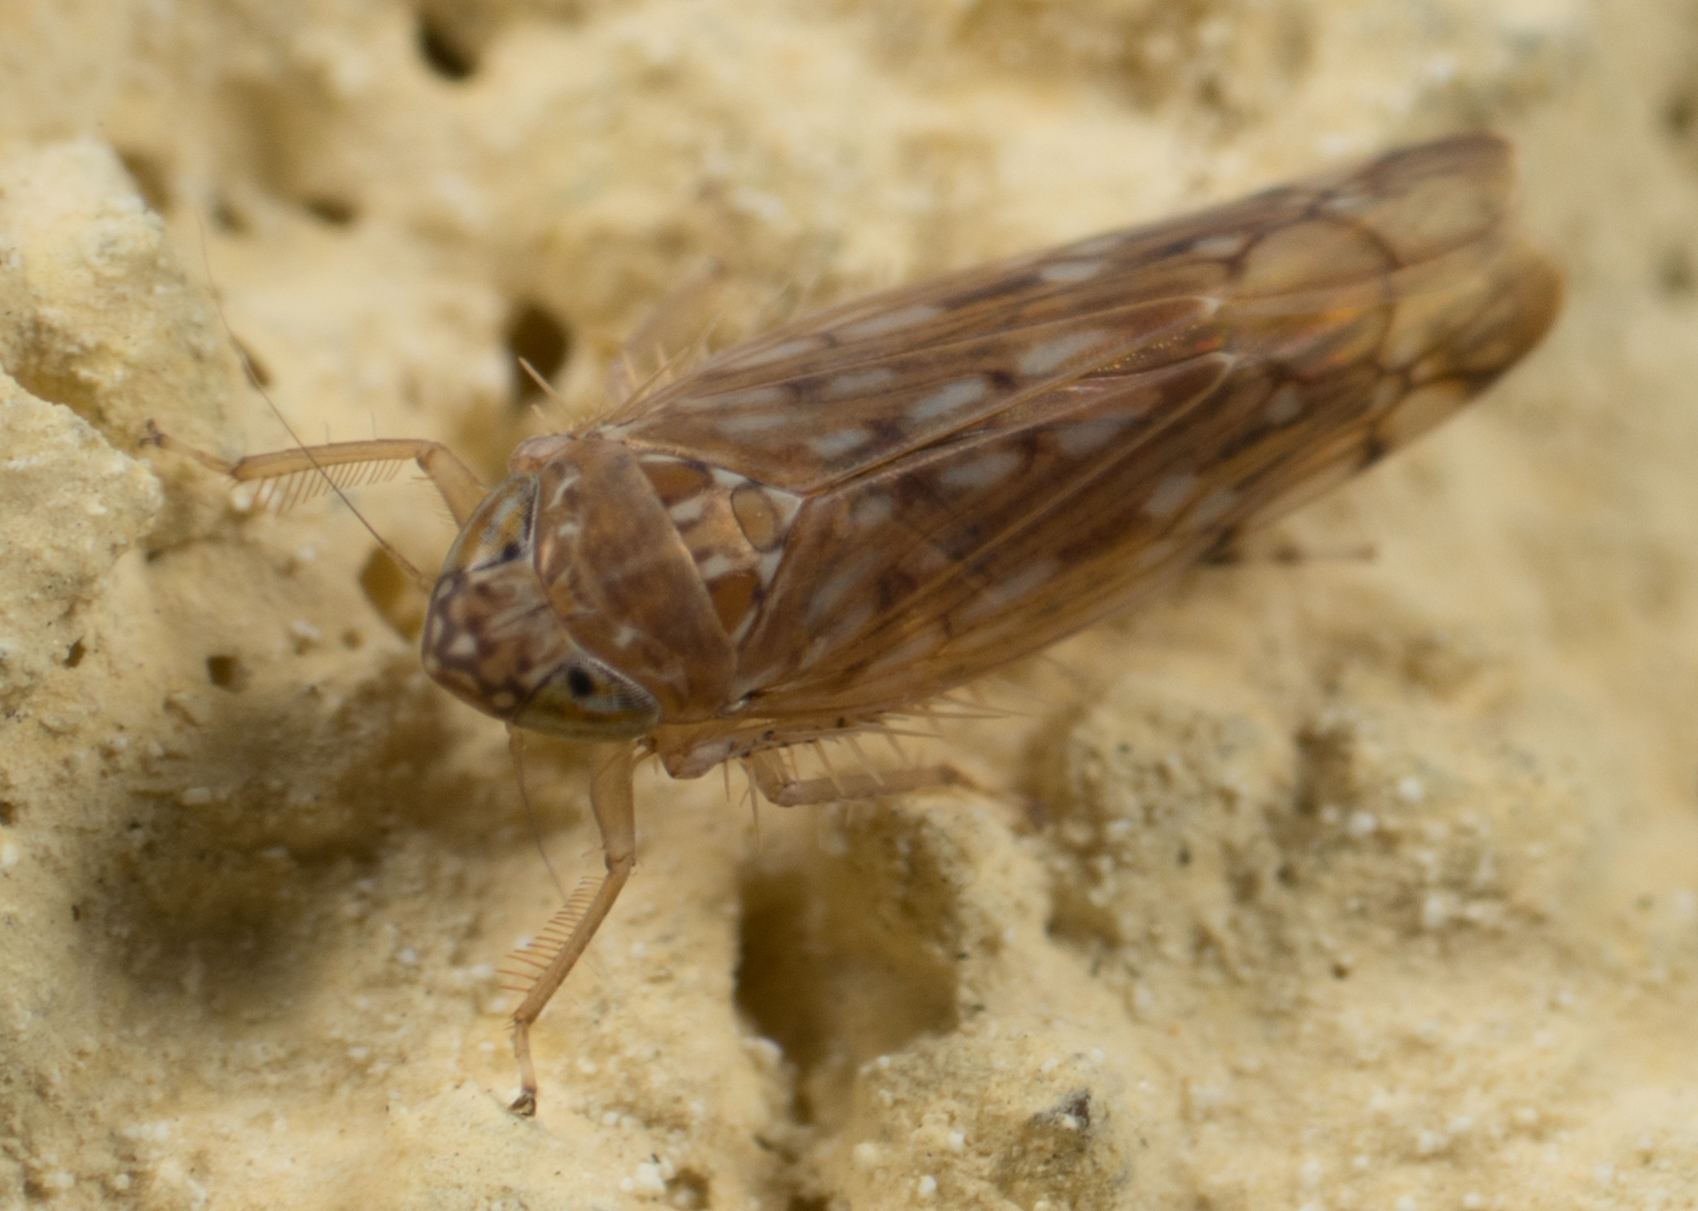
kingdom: Animalia
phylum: Arthropoda
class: Insecta
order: Hemiptera
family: Cicadellidae
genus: Osbornellus
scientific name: Osbornellus scalaris
